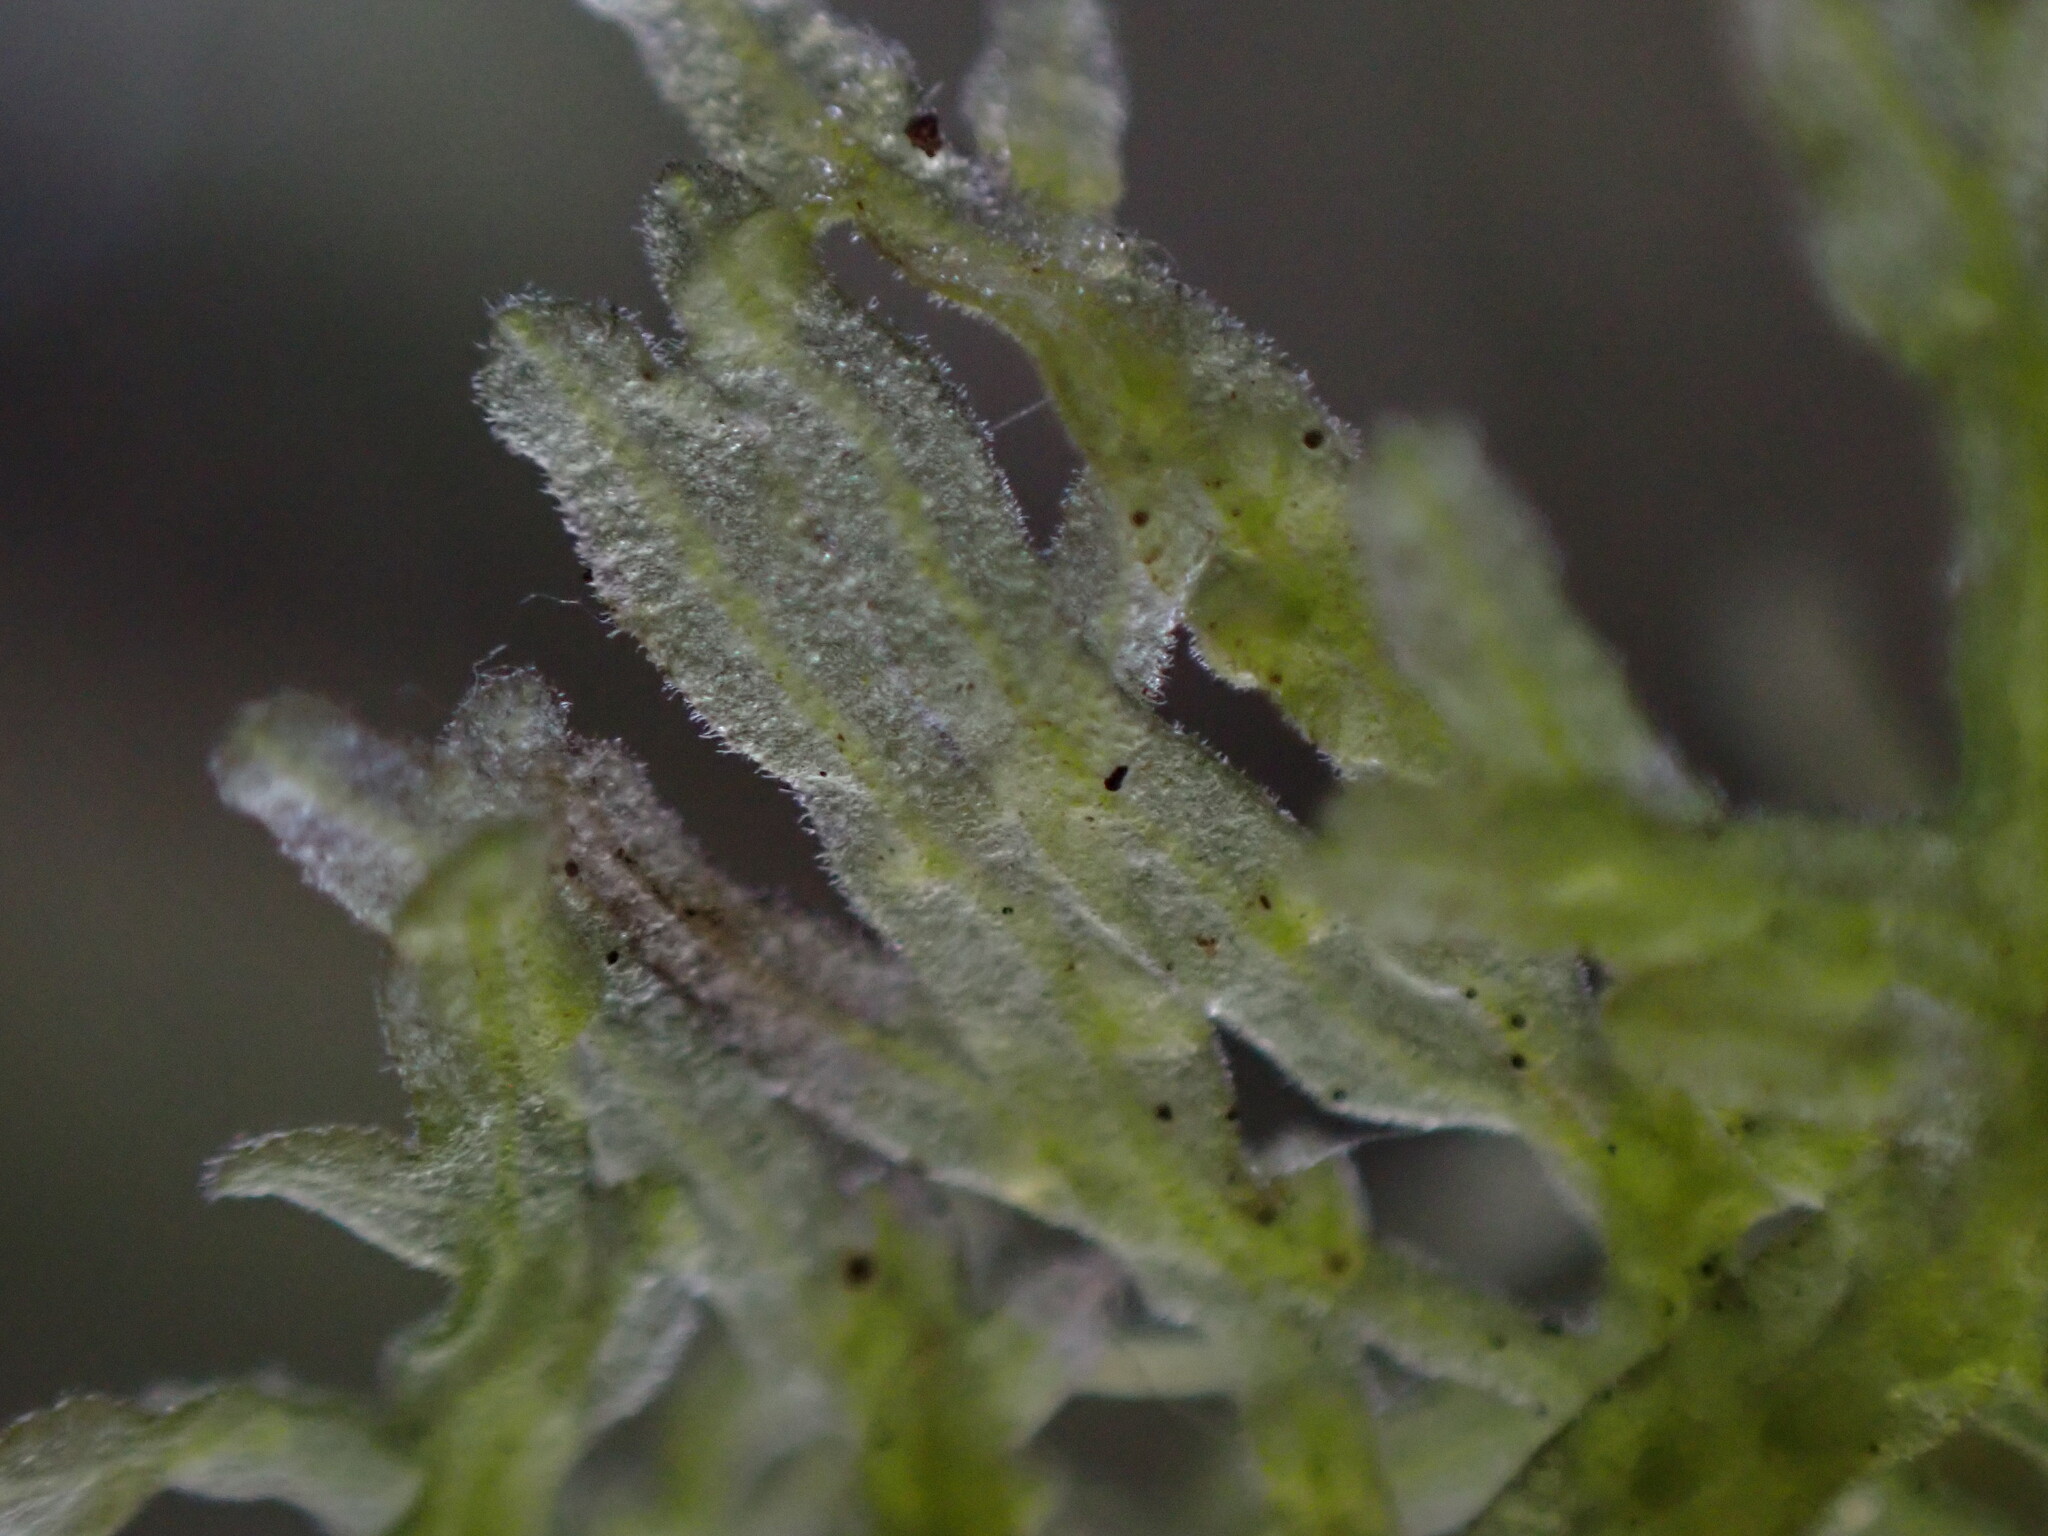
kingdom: Plantae
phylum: Marchantiophyta
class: Jungermanniopsida
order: Metzgeriales
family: Metzgeriaceae
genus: Metzgeria
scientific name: Metzgeria pubescens
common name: Downy veilwort
